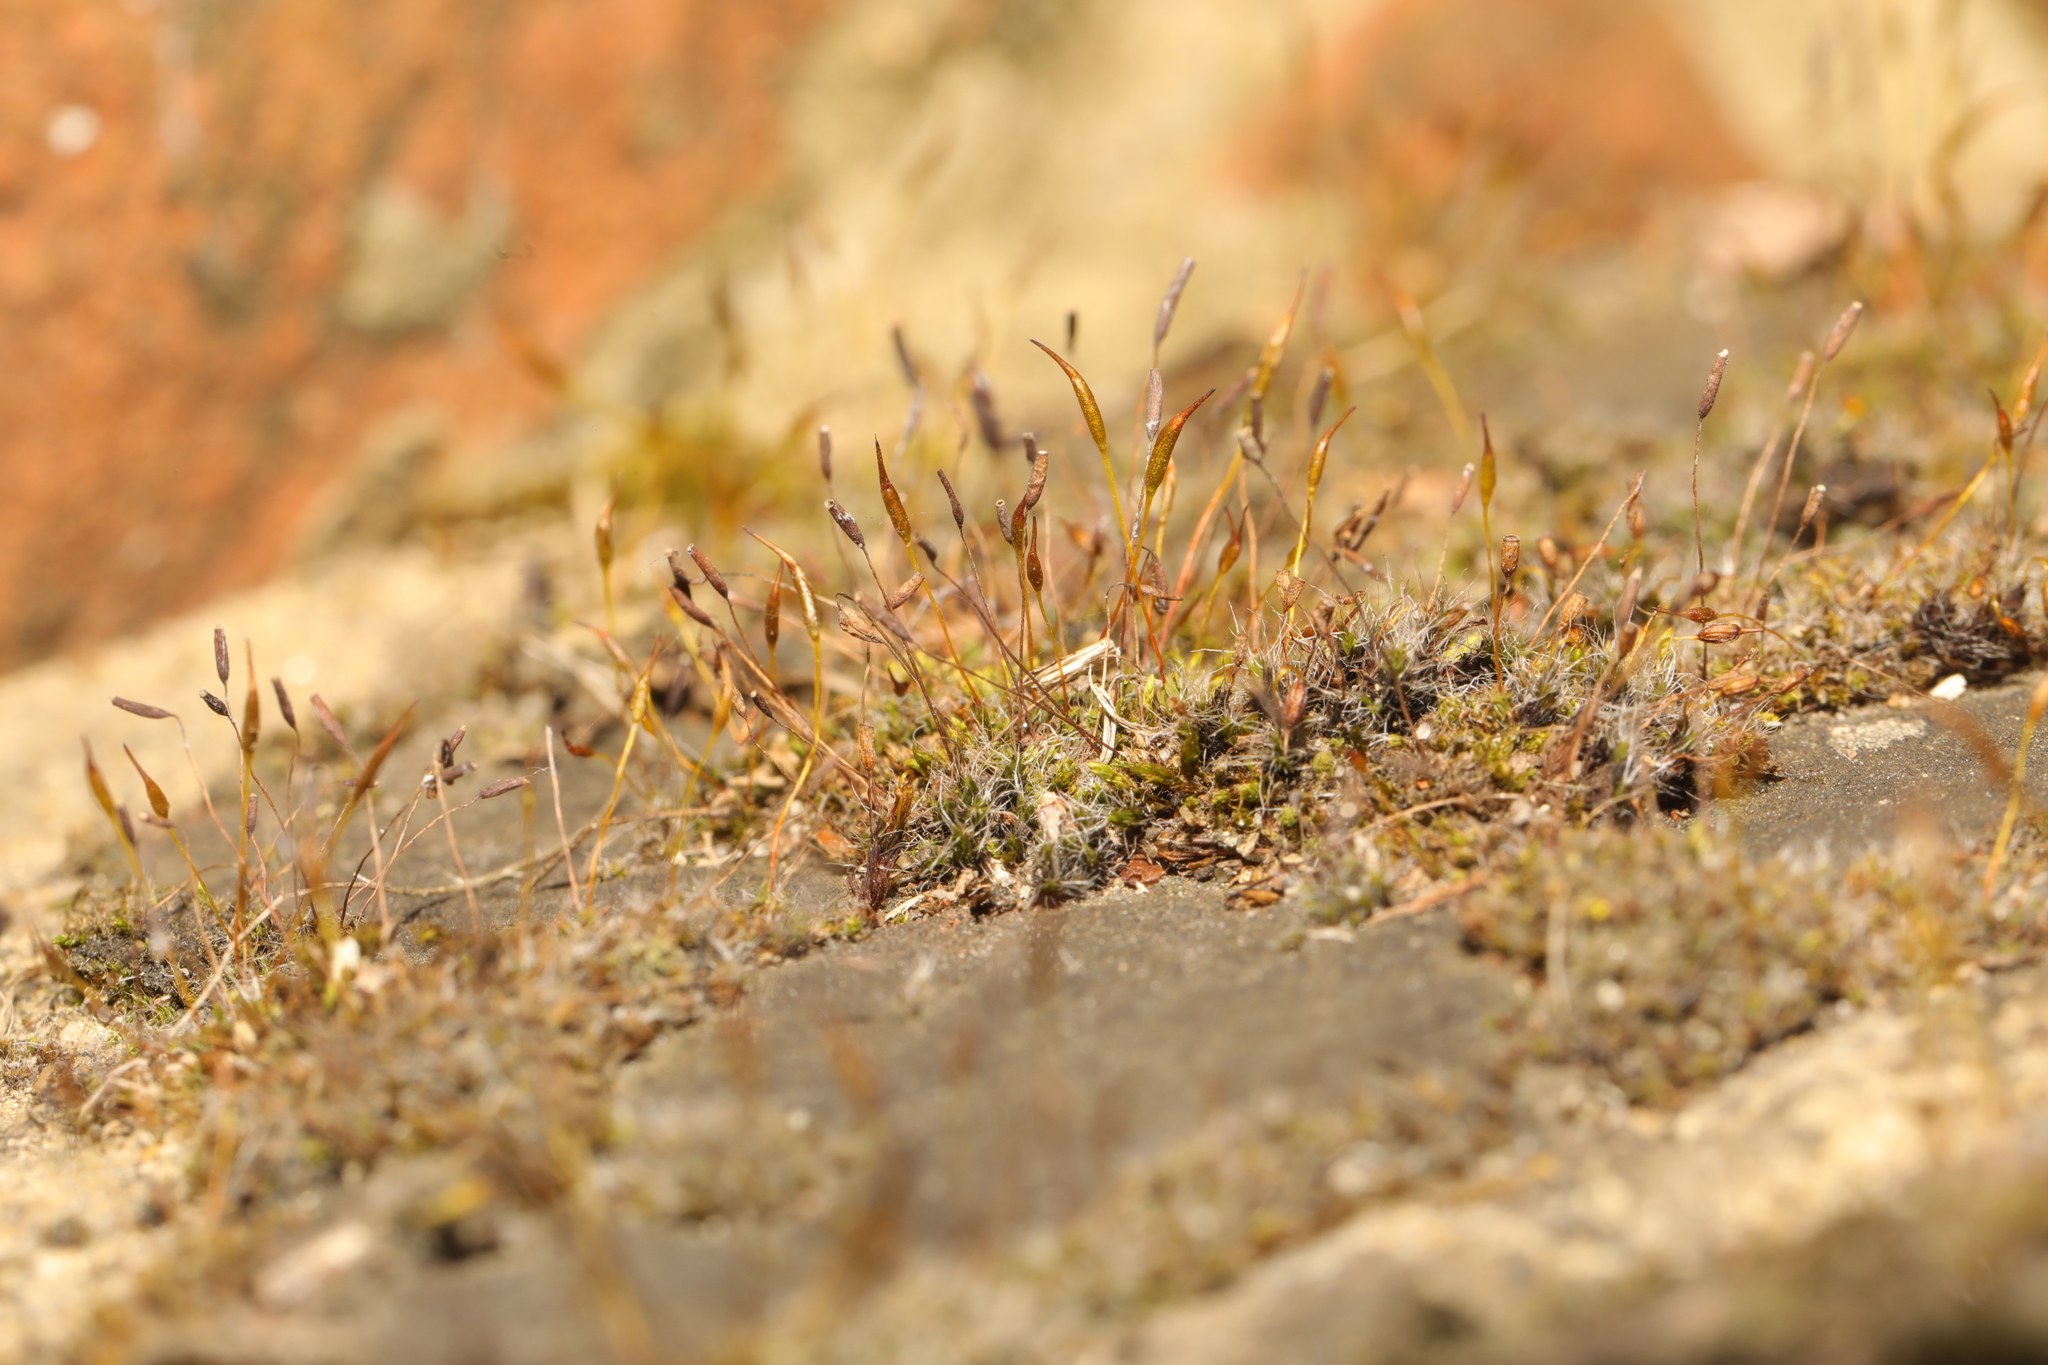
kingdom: Plantae
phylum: Bryophyta
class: Bryopsida
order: Pottiales
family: Pottiaceae
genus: Tortula
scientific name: Tortula muralis
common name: Wall screw-moss
